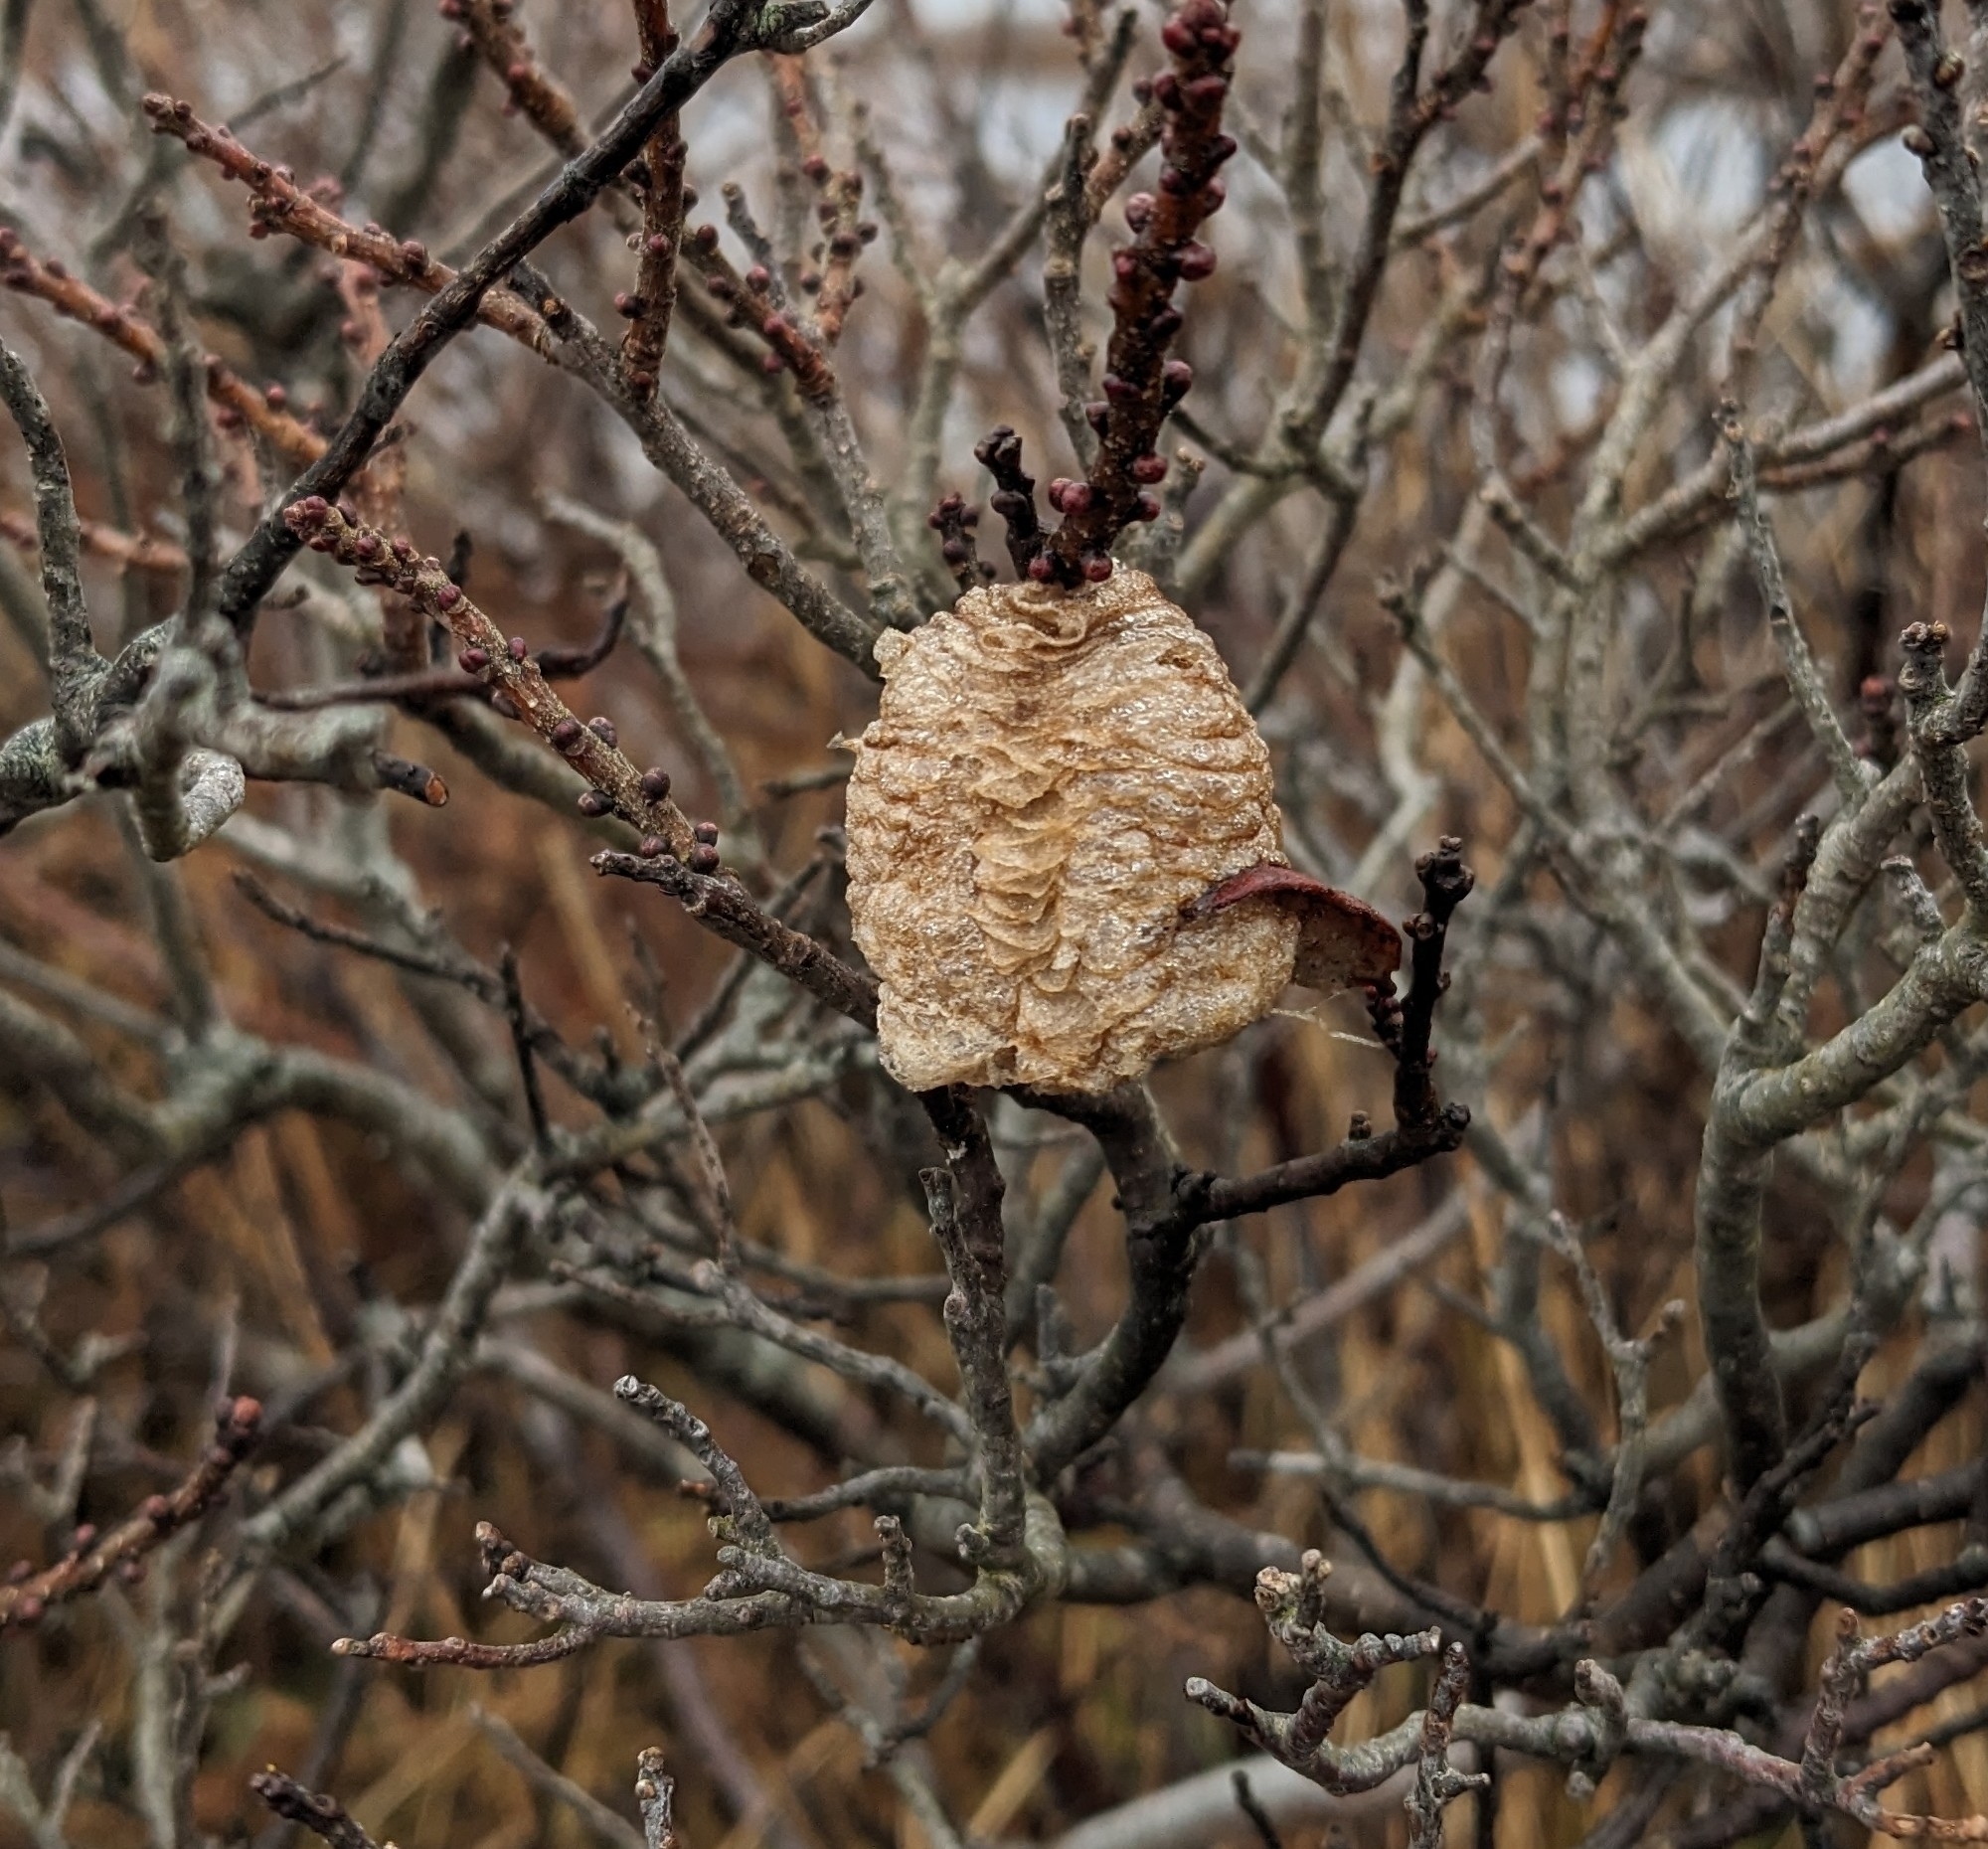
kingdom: Animalia
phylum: Arthropoda
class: Insecta
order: Mantodea
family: Mantidae
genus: Tenodera
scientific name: Tenodera sinensis
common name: Chinese mantis
